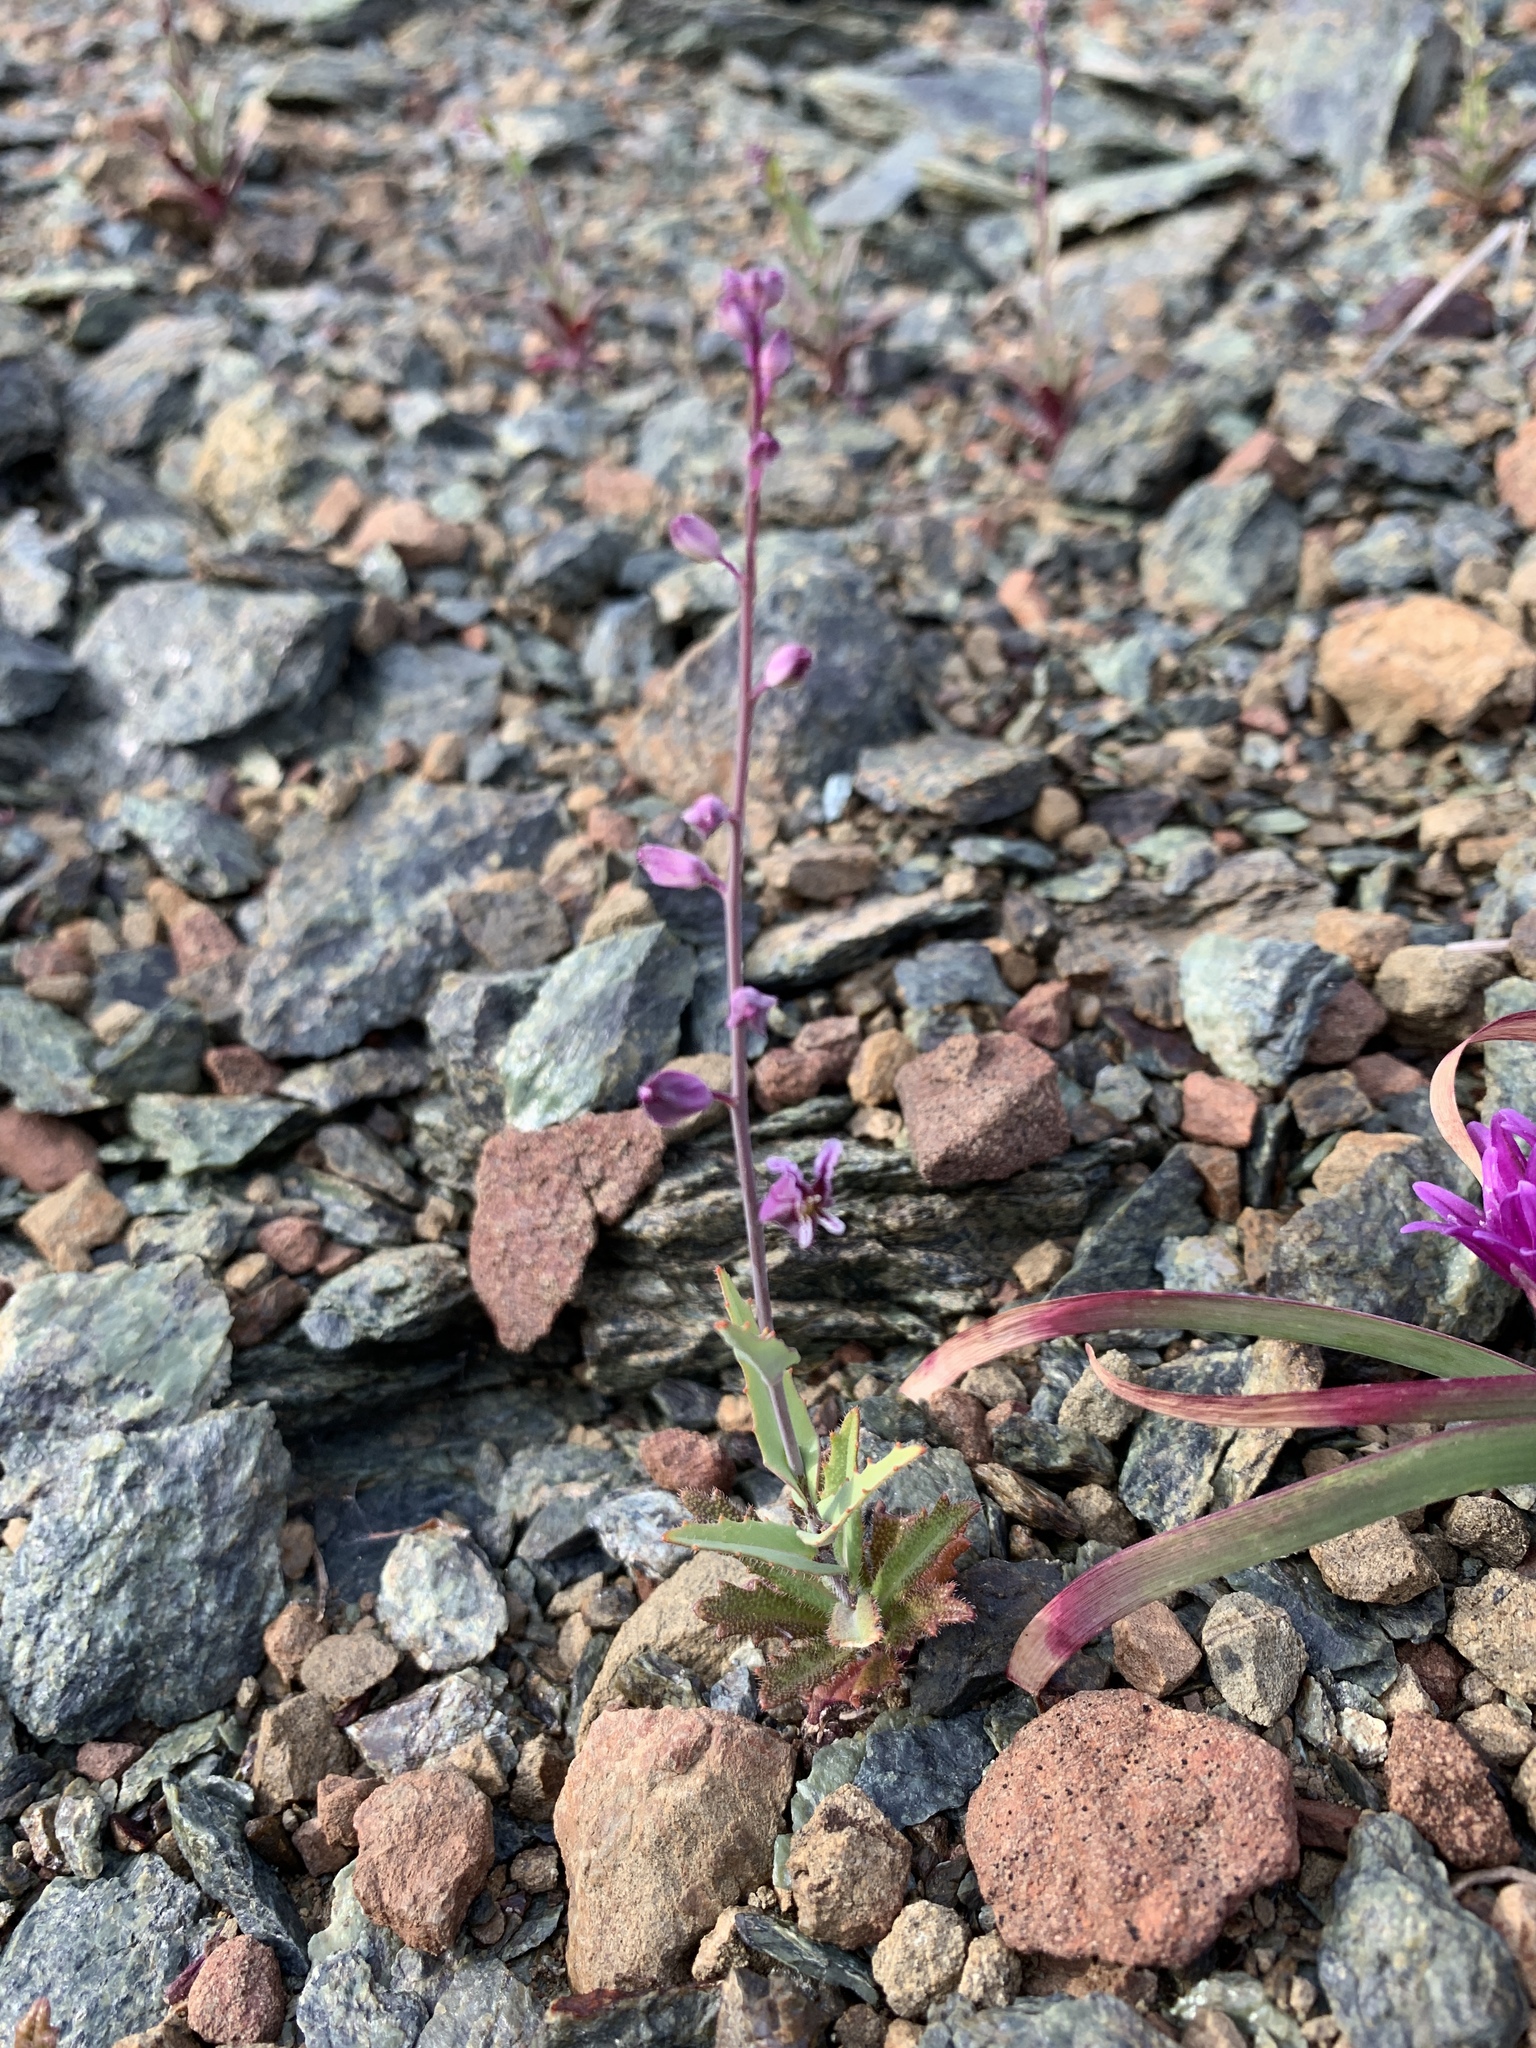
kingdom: Plantae
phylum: Tracheophyta
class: Magnoliopsida
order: Brassicales
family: Brassicaceae
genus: Streptanthus
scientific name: Streptanthus glandulosus
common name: Jewel-flower
